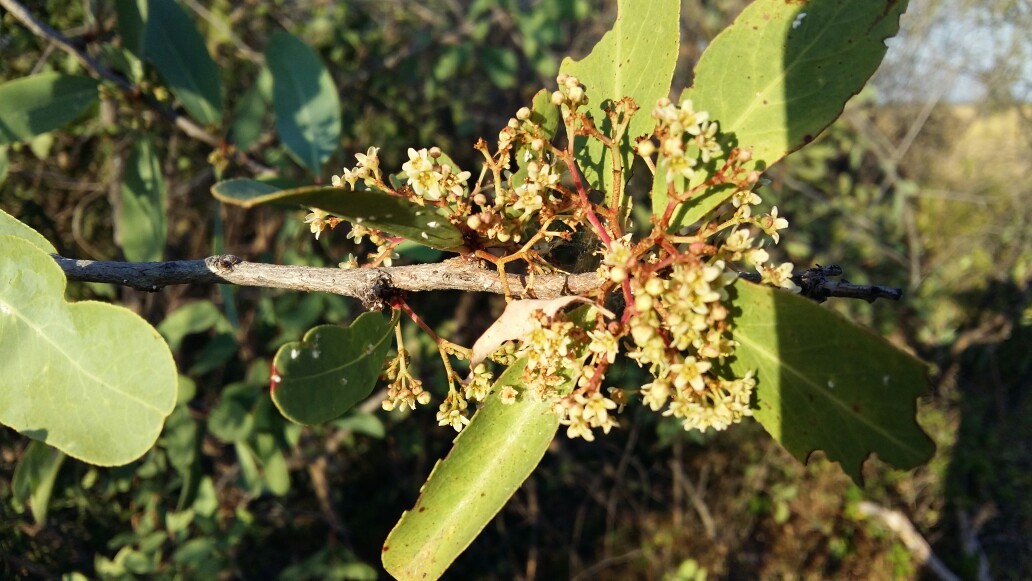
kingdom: Plantae
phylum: Tracheophyta
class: Magnoliopsida
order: Celastrales
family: Celastraceae
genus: Gymnosporia
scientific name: Gymnosporia senegalensis
